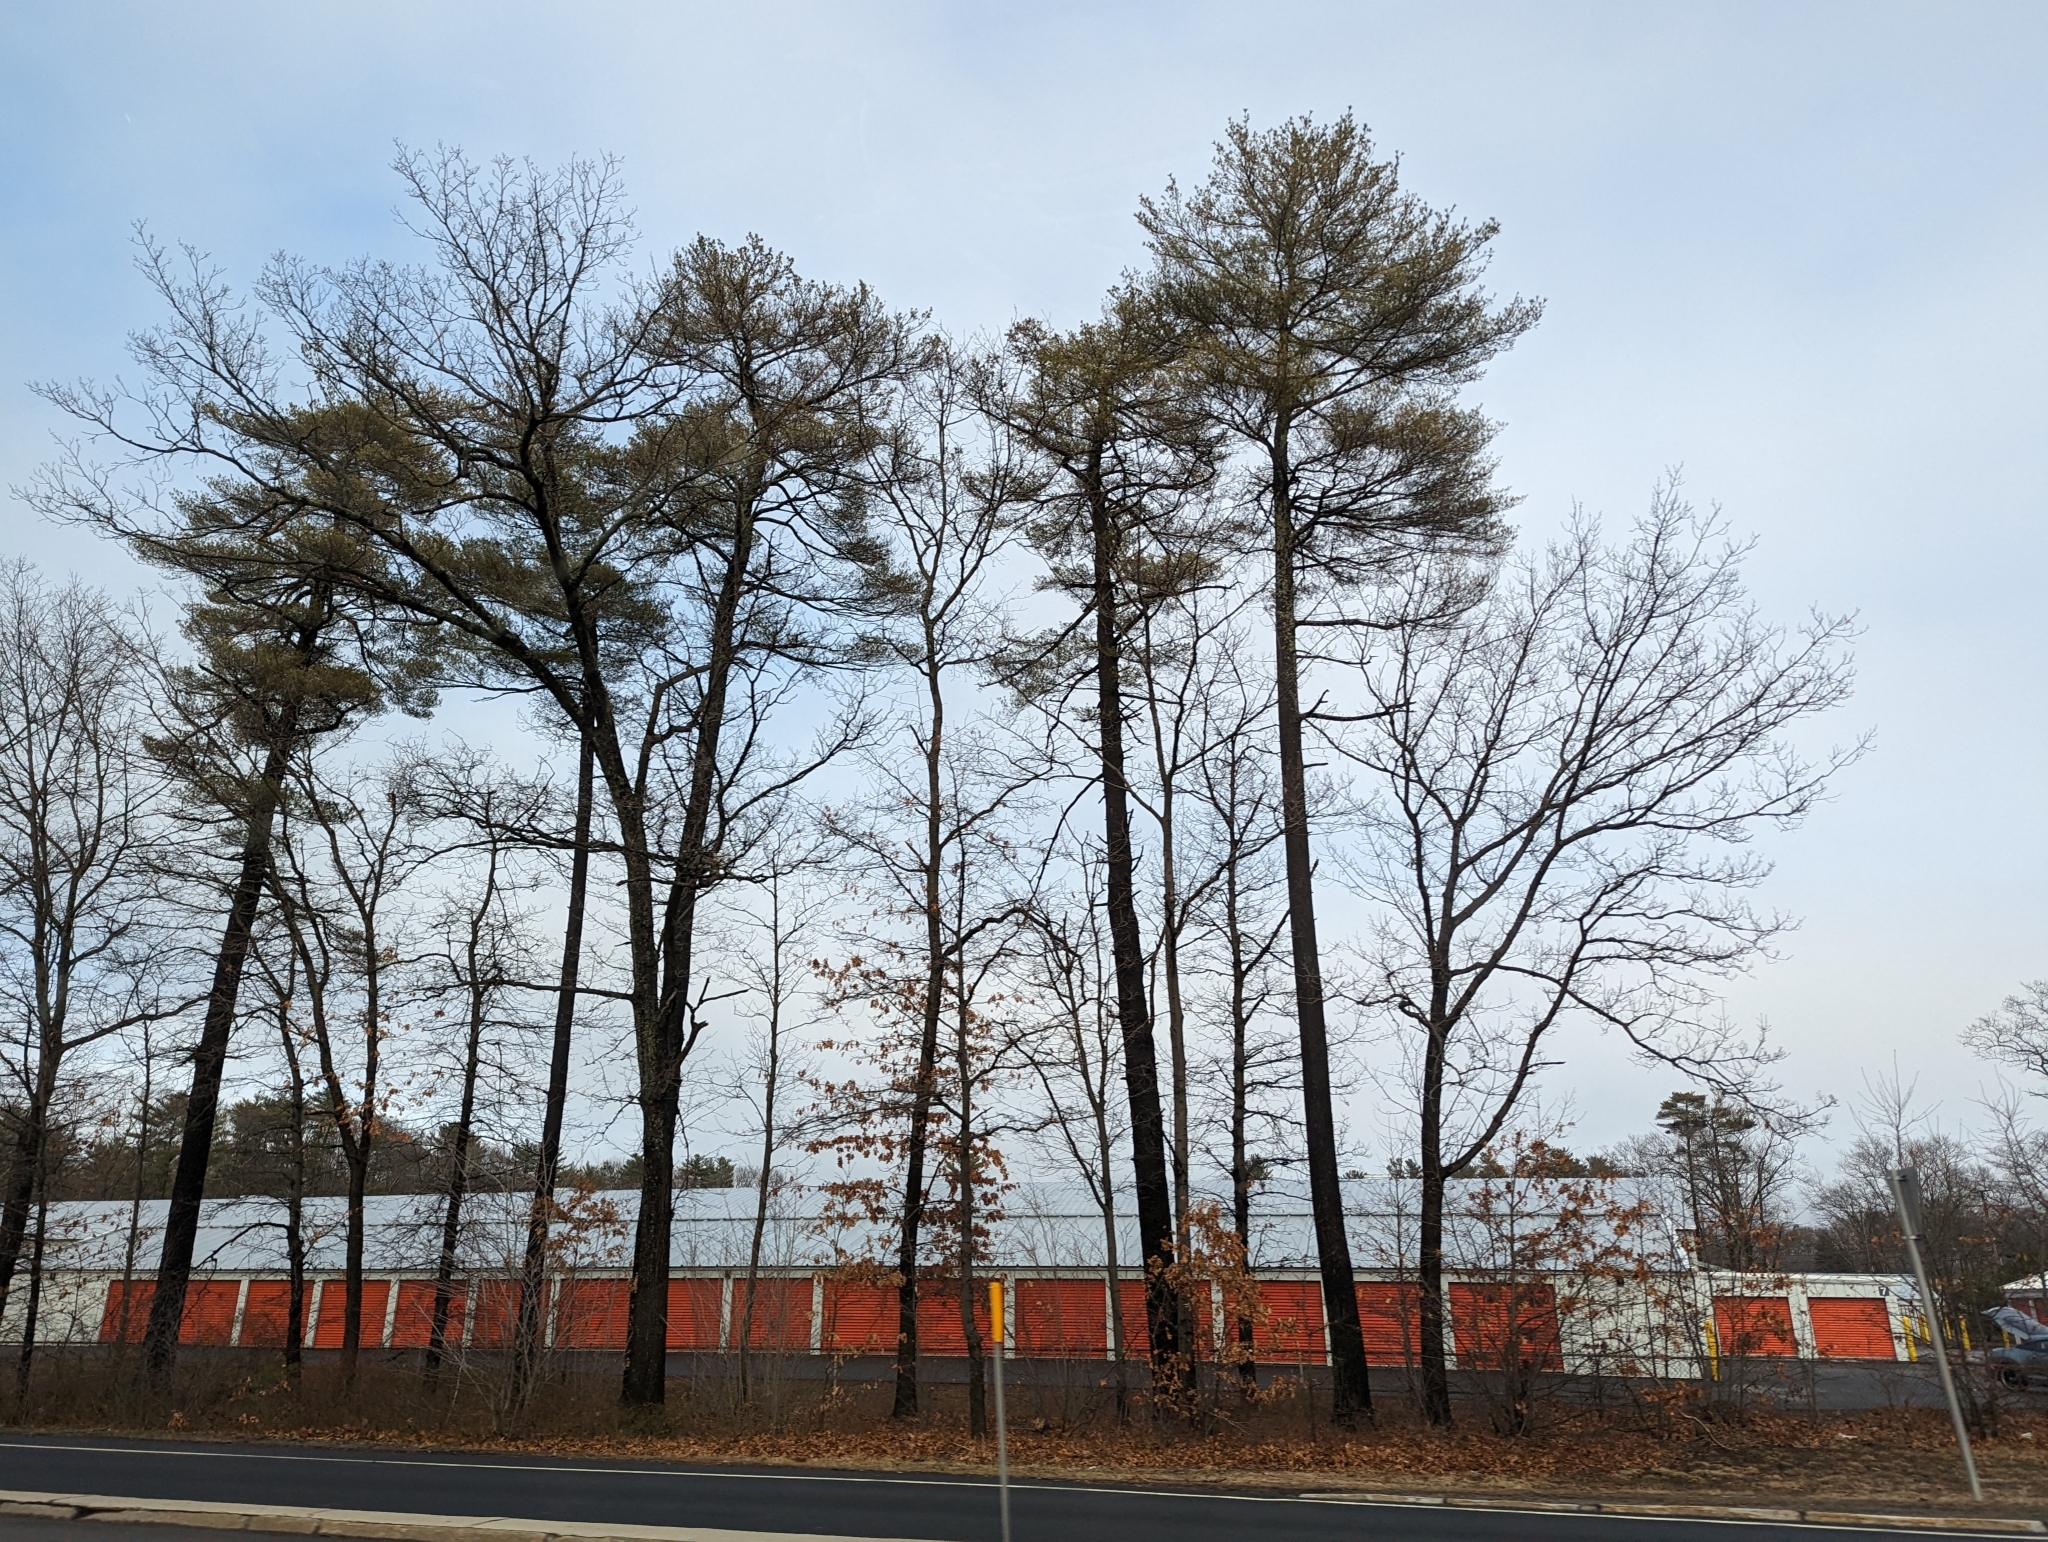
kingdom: Plantae
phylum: Tracheophyta
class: Pinopsida
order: Pinales
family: Pinaceae
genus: Pinus
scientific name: Pinus strobus
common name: Weymouth pine
